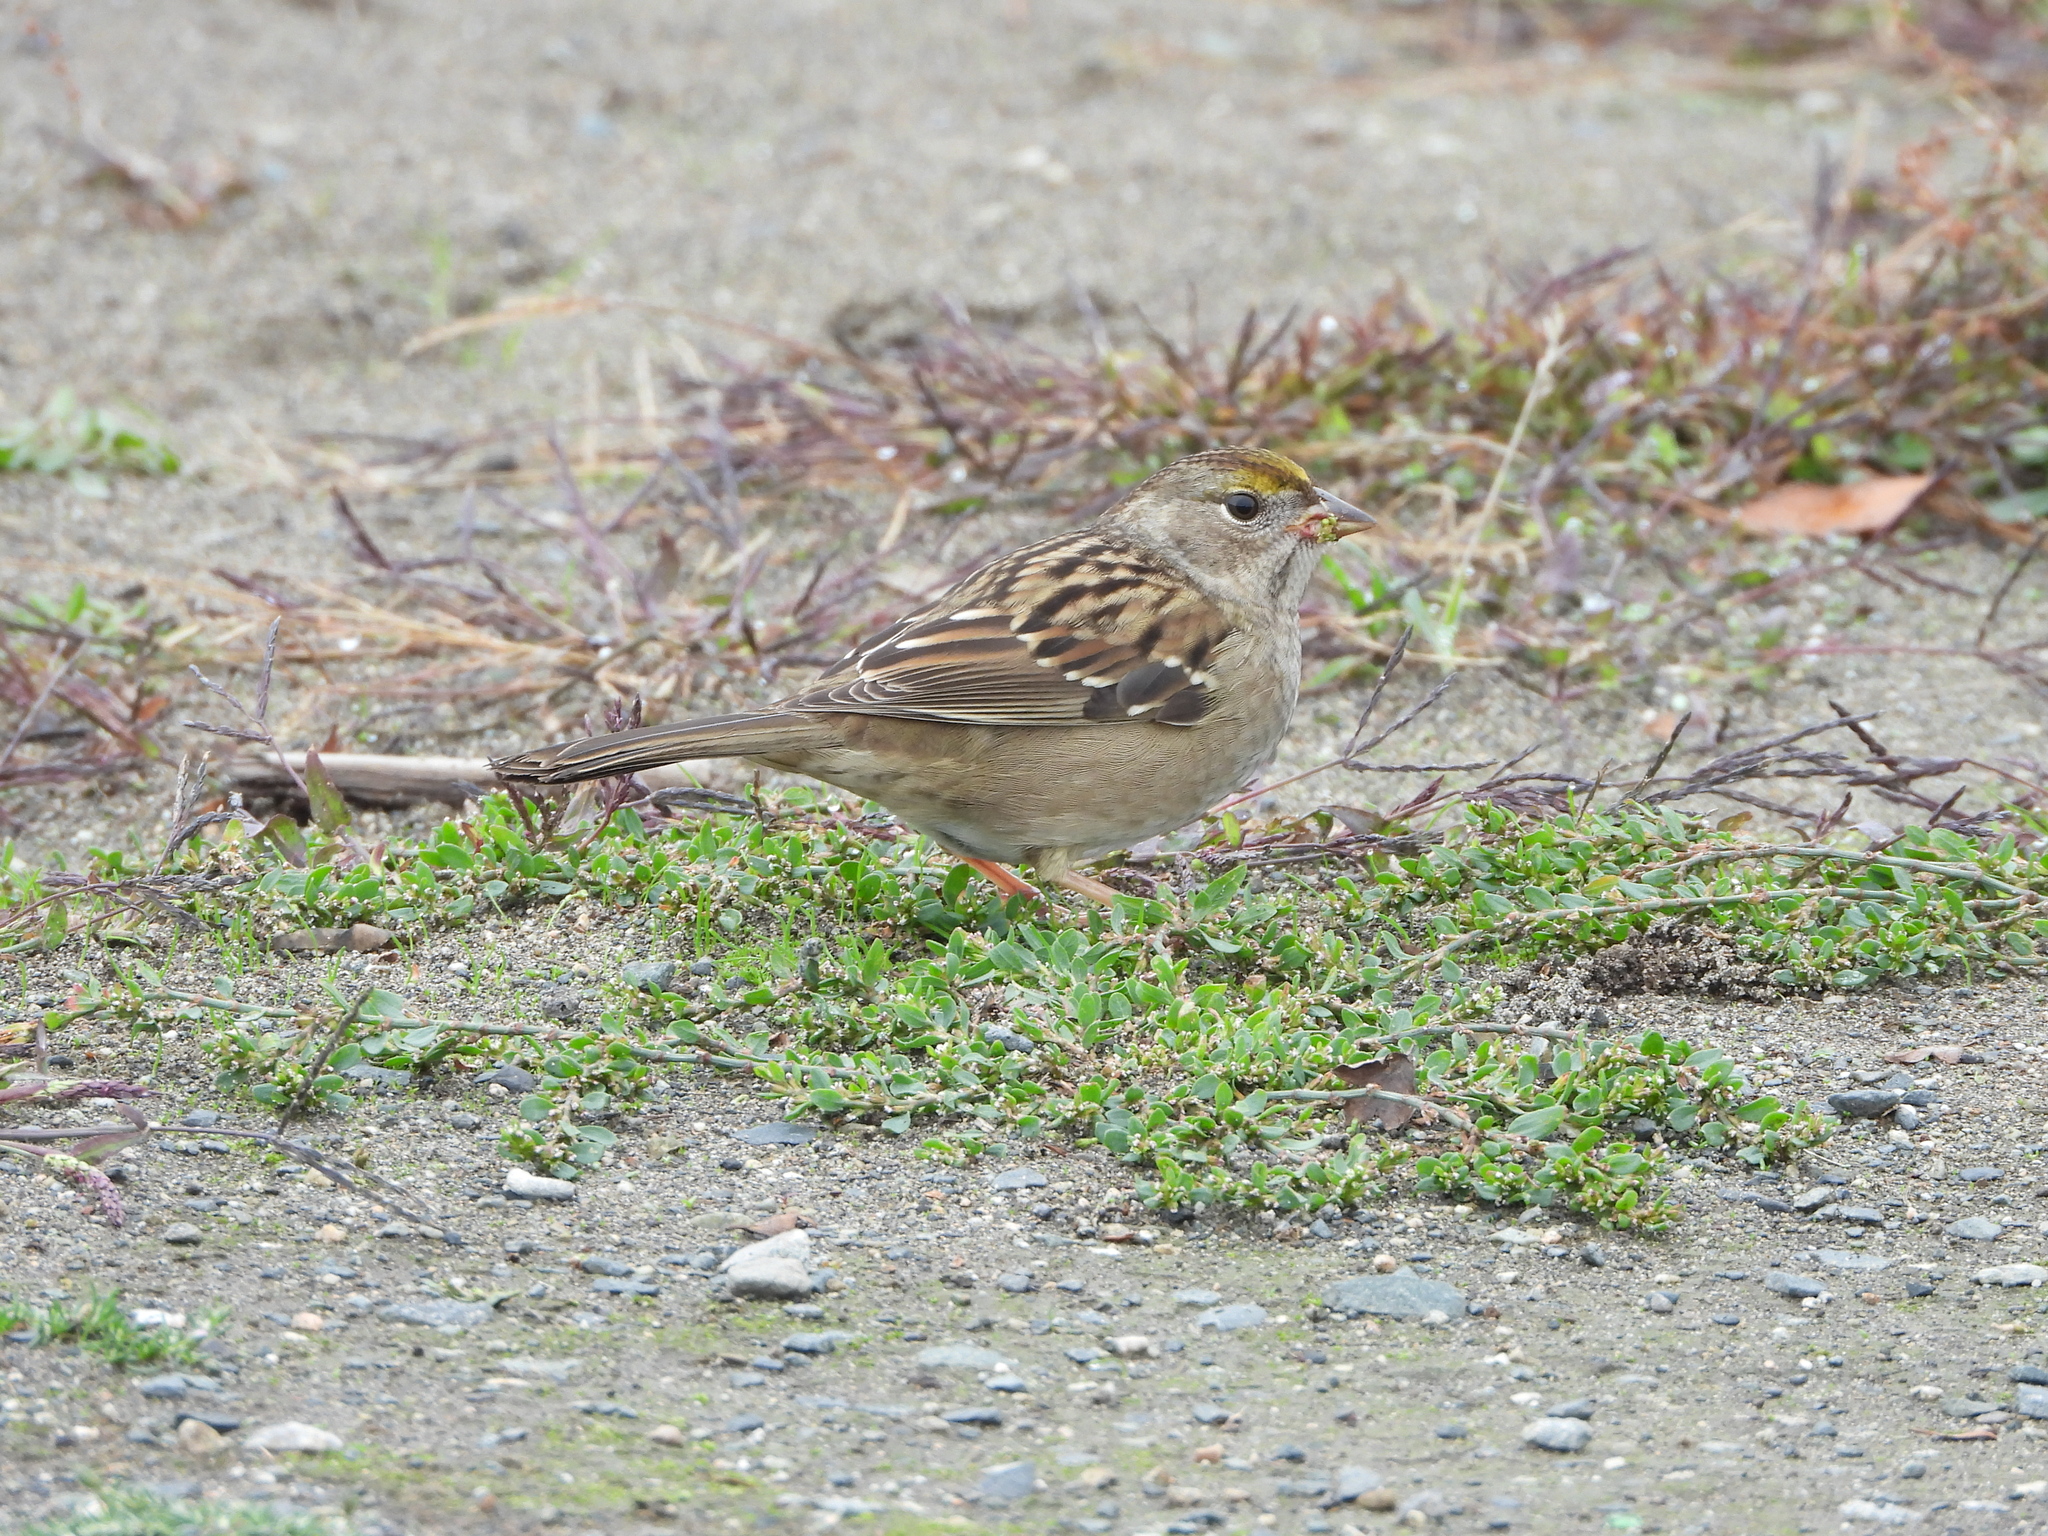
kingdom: Animalia
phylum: Chordata
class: Aves
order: Passeriformes
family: Passerellidae
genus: Zonotrichia
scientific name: Zonotrichia atricapilla
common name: Golden-crowned sparrow
